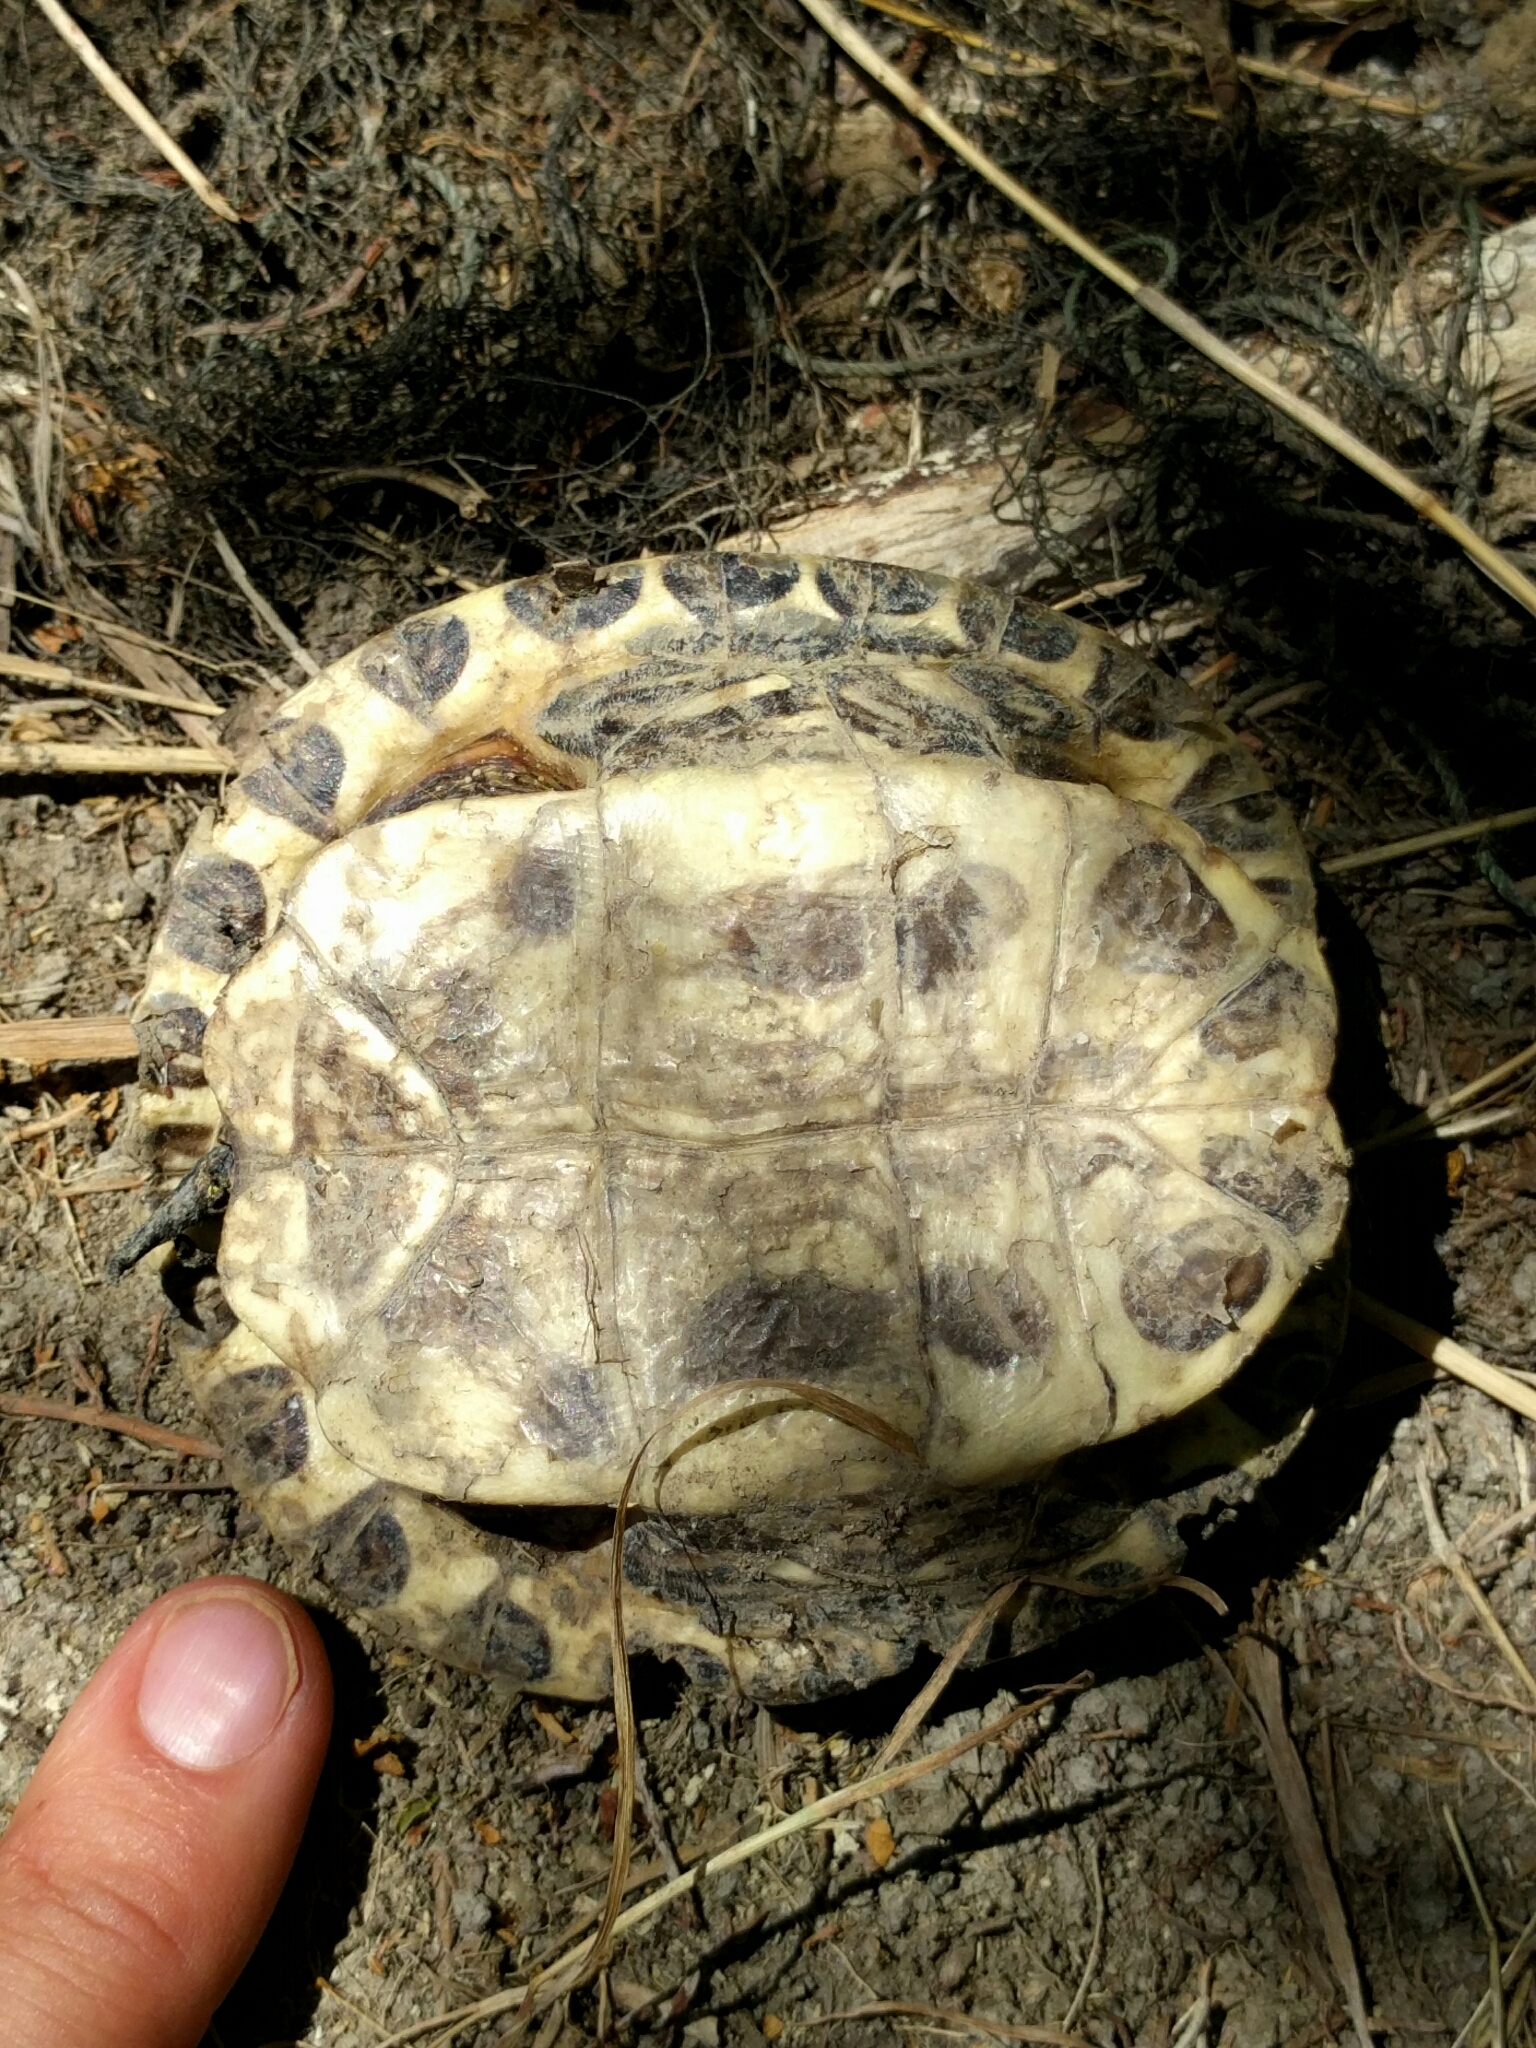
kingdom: Animalia
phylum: Chordata
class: Testudines
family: Emydidae
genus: Trachemys
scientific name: Trachemys scripta
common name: Slider
